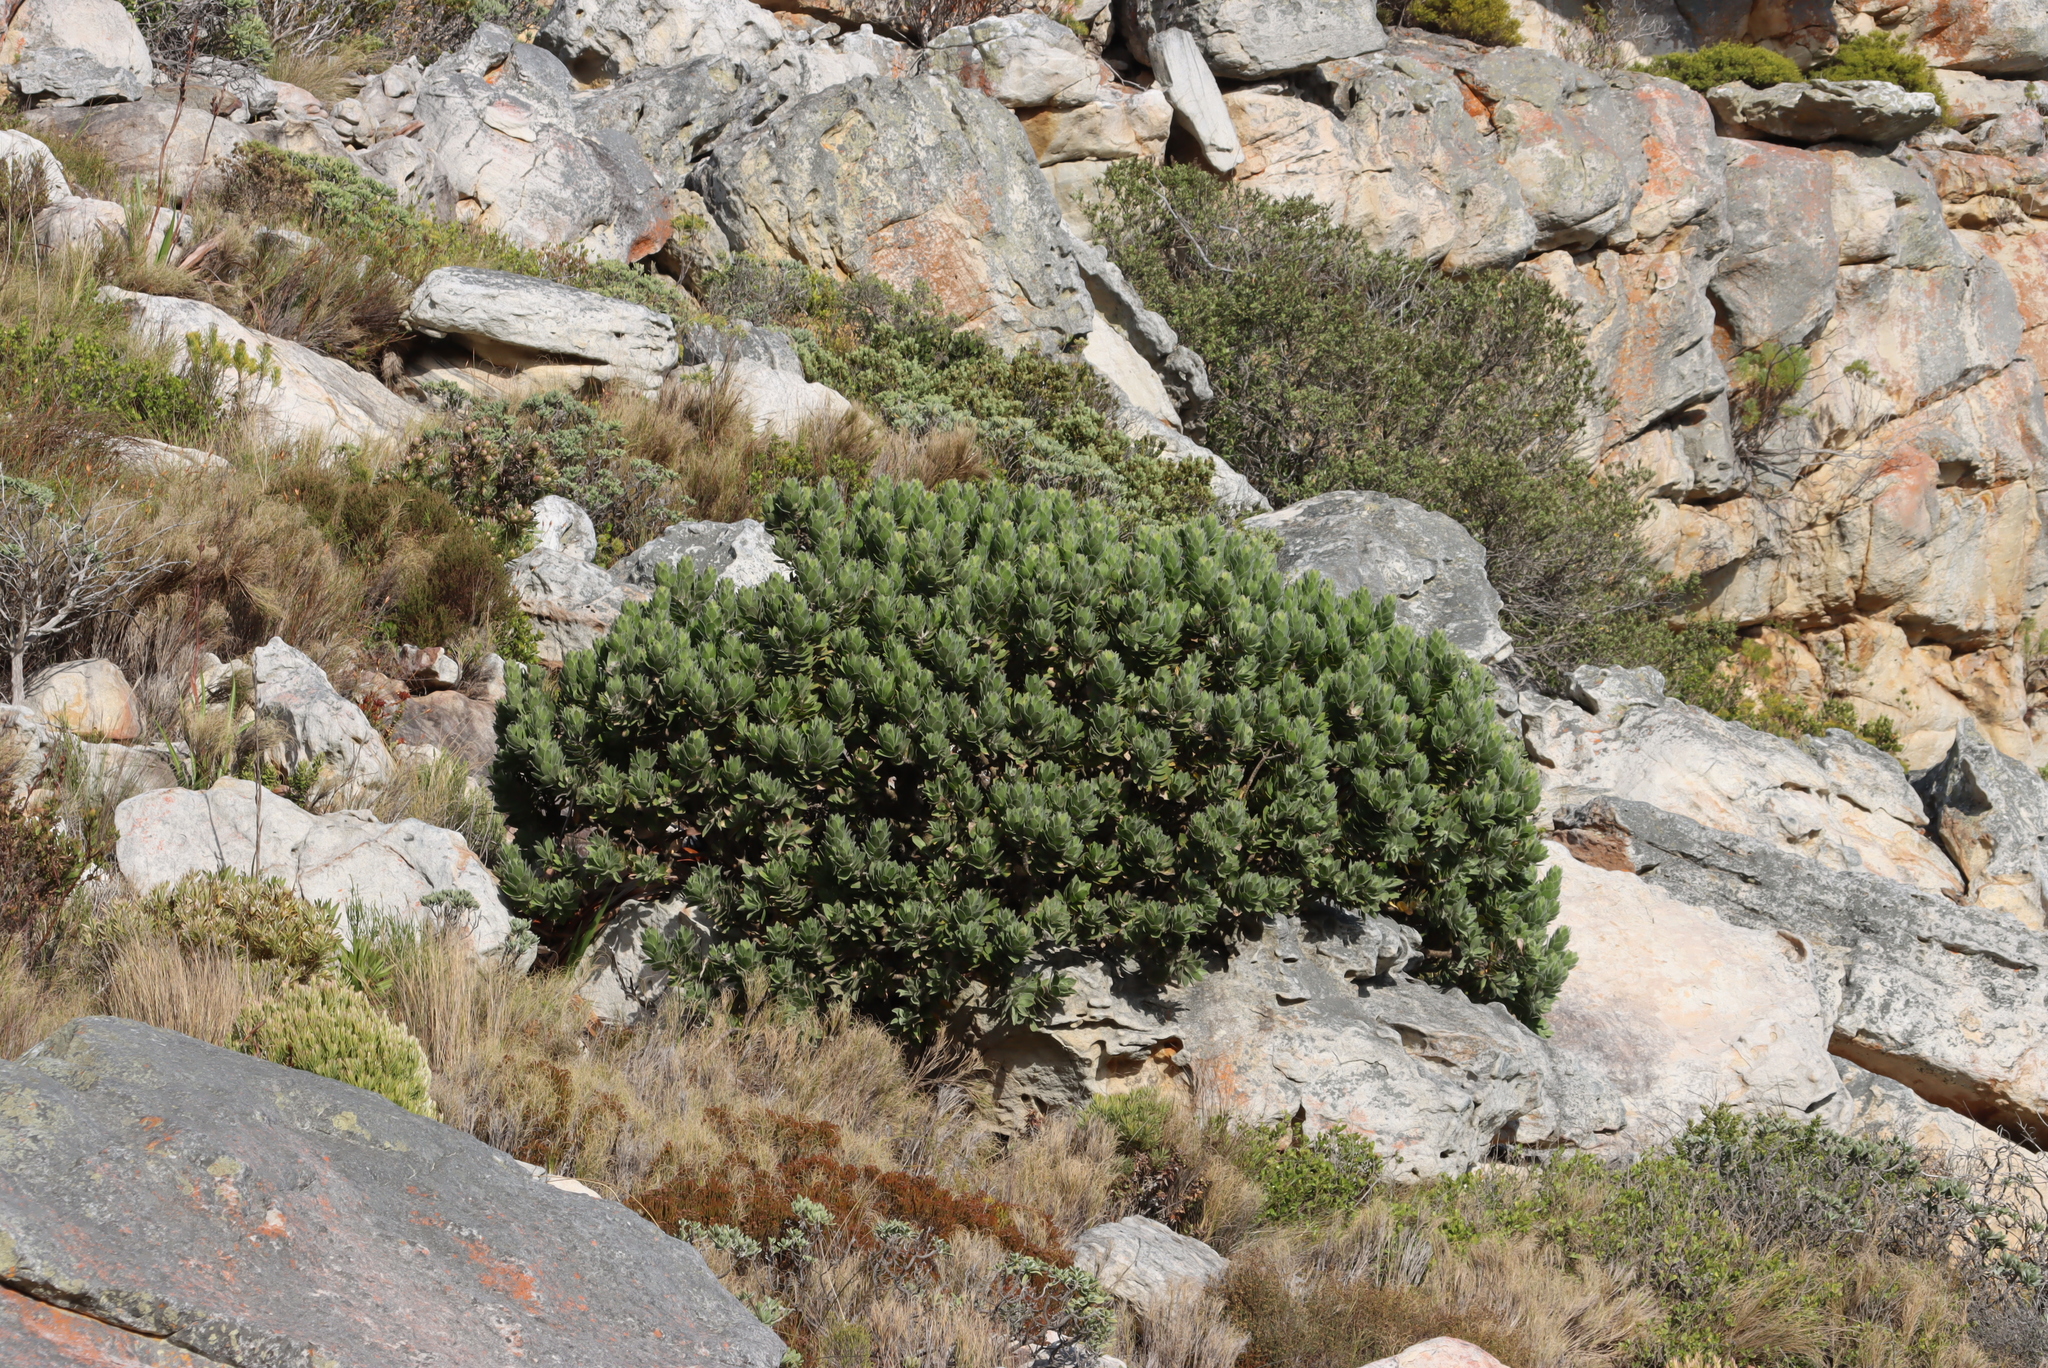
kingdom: Plantae
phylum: Tracheophyta
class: Magnoliopsida
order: Proteales
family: Proteaceae
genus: Leucospermum
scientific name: Leucospermum conocarpodendron
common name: Tree pincushion
